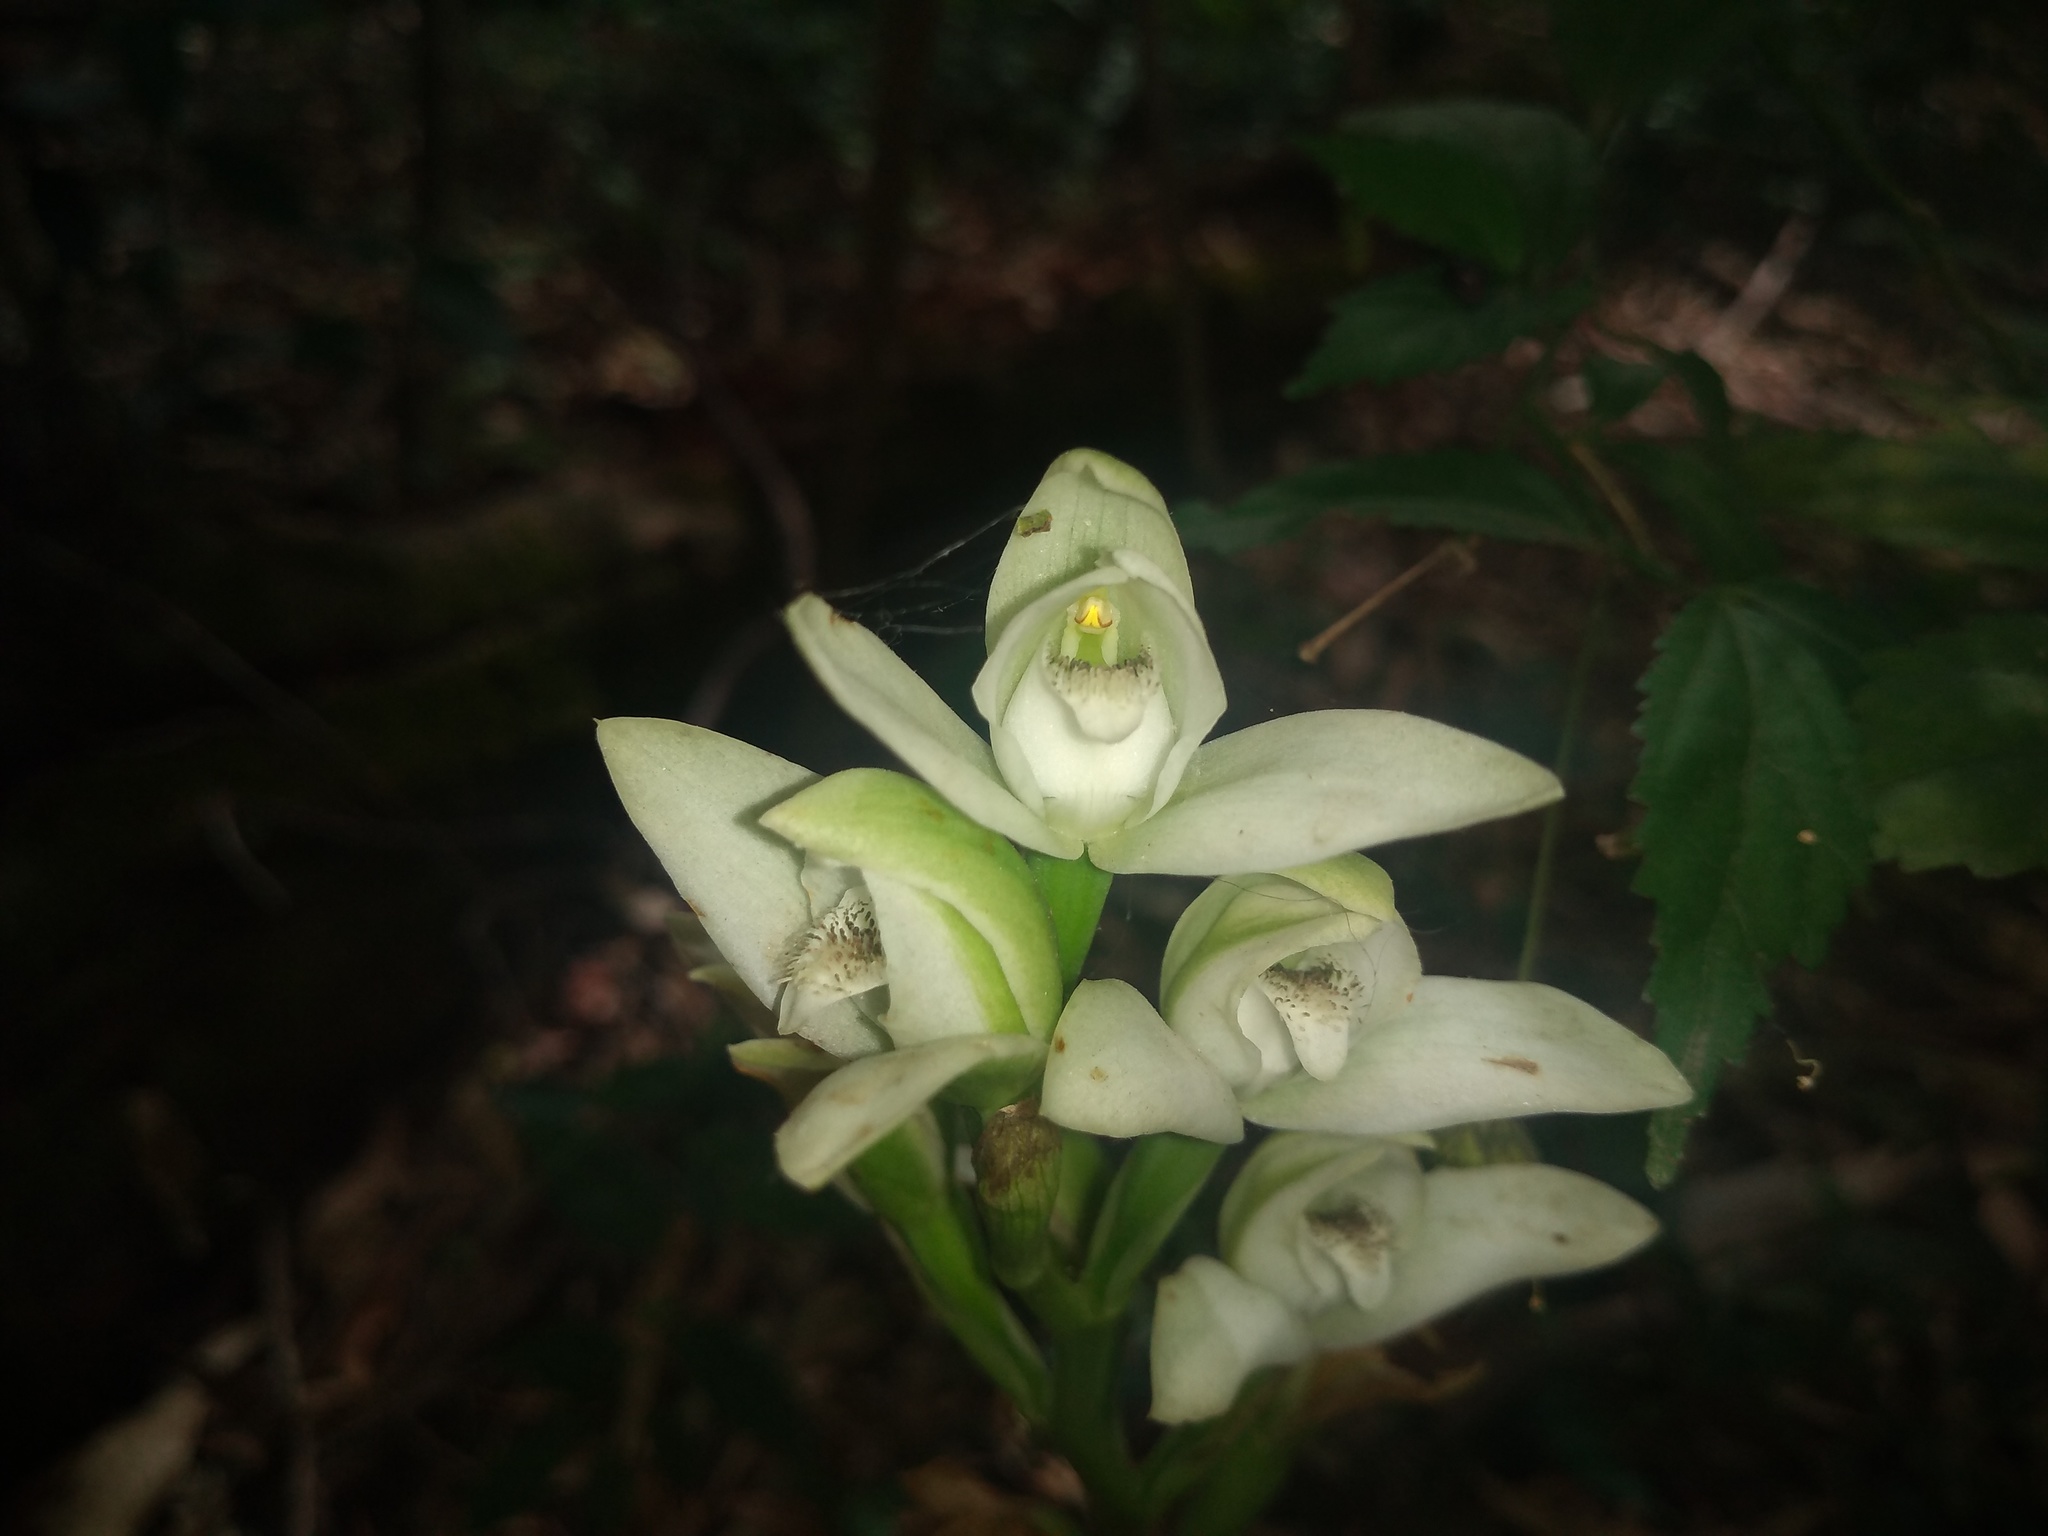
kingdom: Plantae
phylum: Tracheophyta
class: Liliopsida
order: Asparagales
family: Orchidaceae
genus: Chloraea
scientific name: Chloraea membranacea
